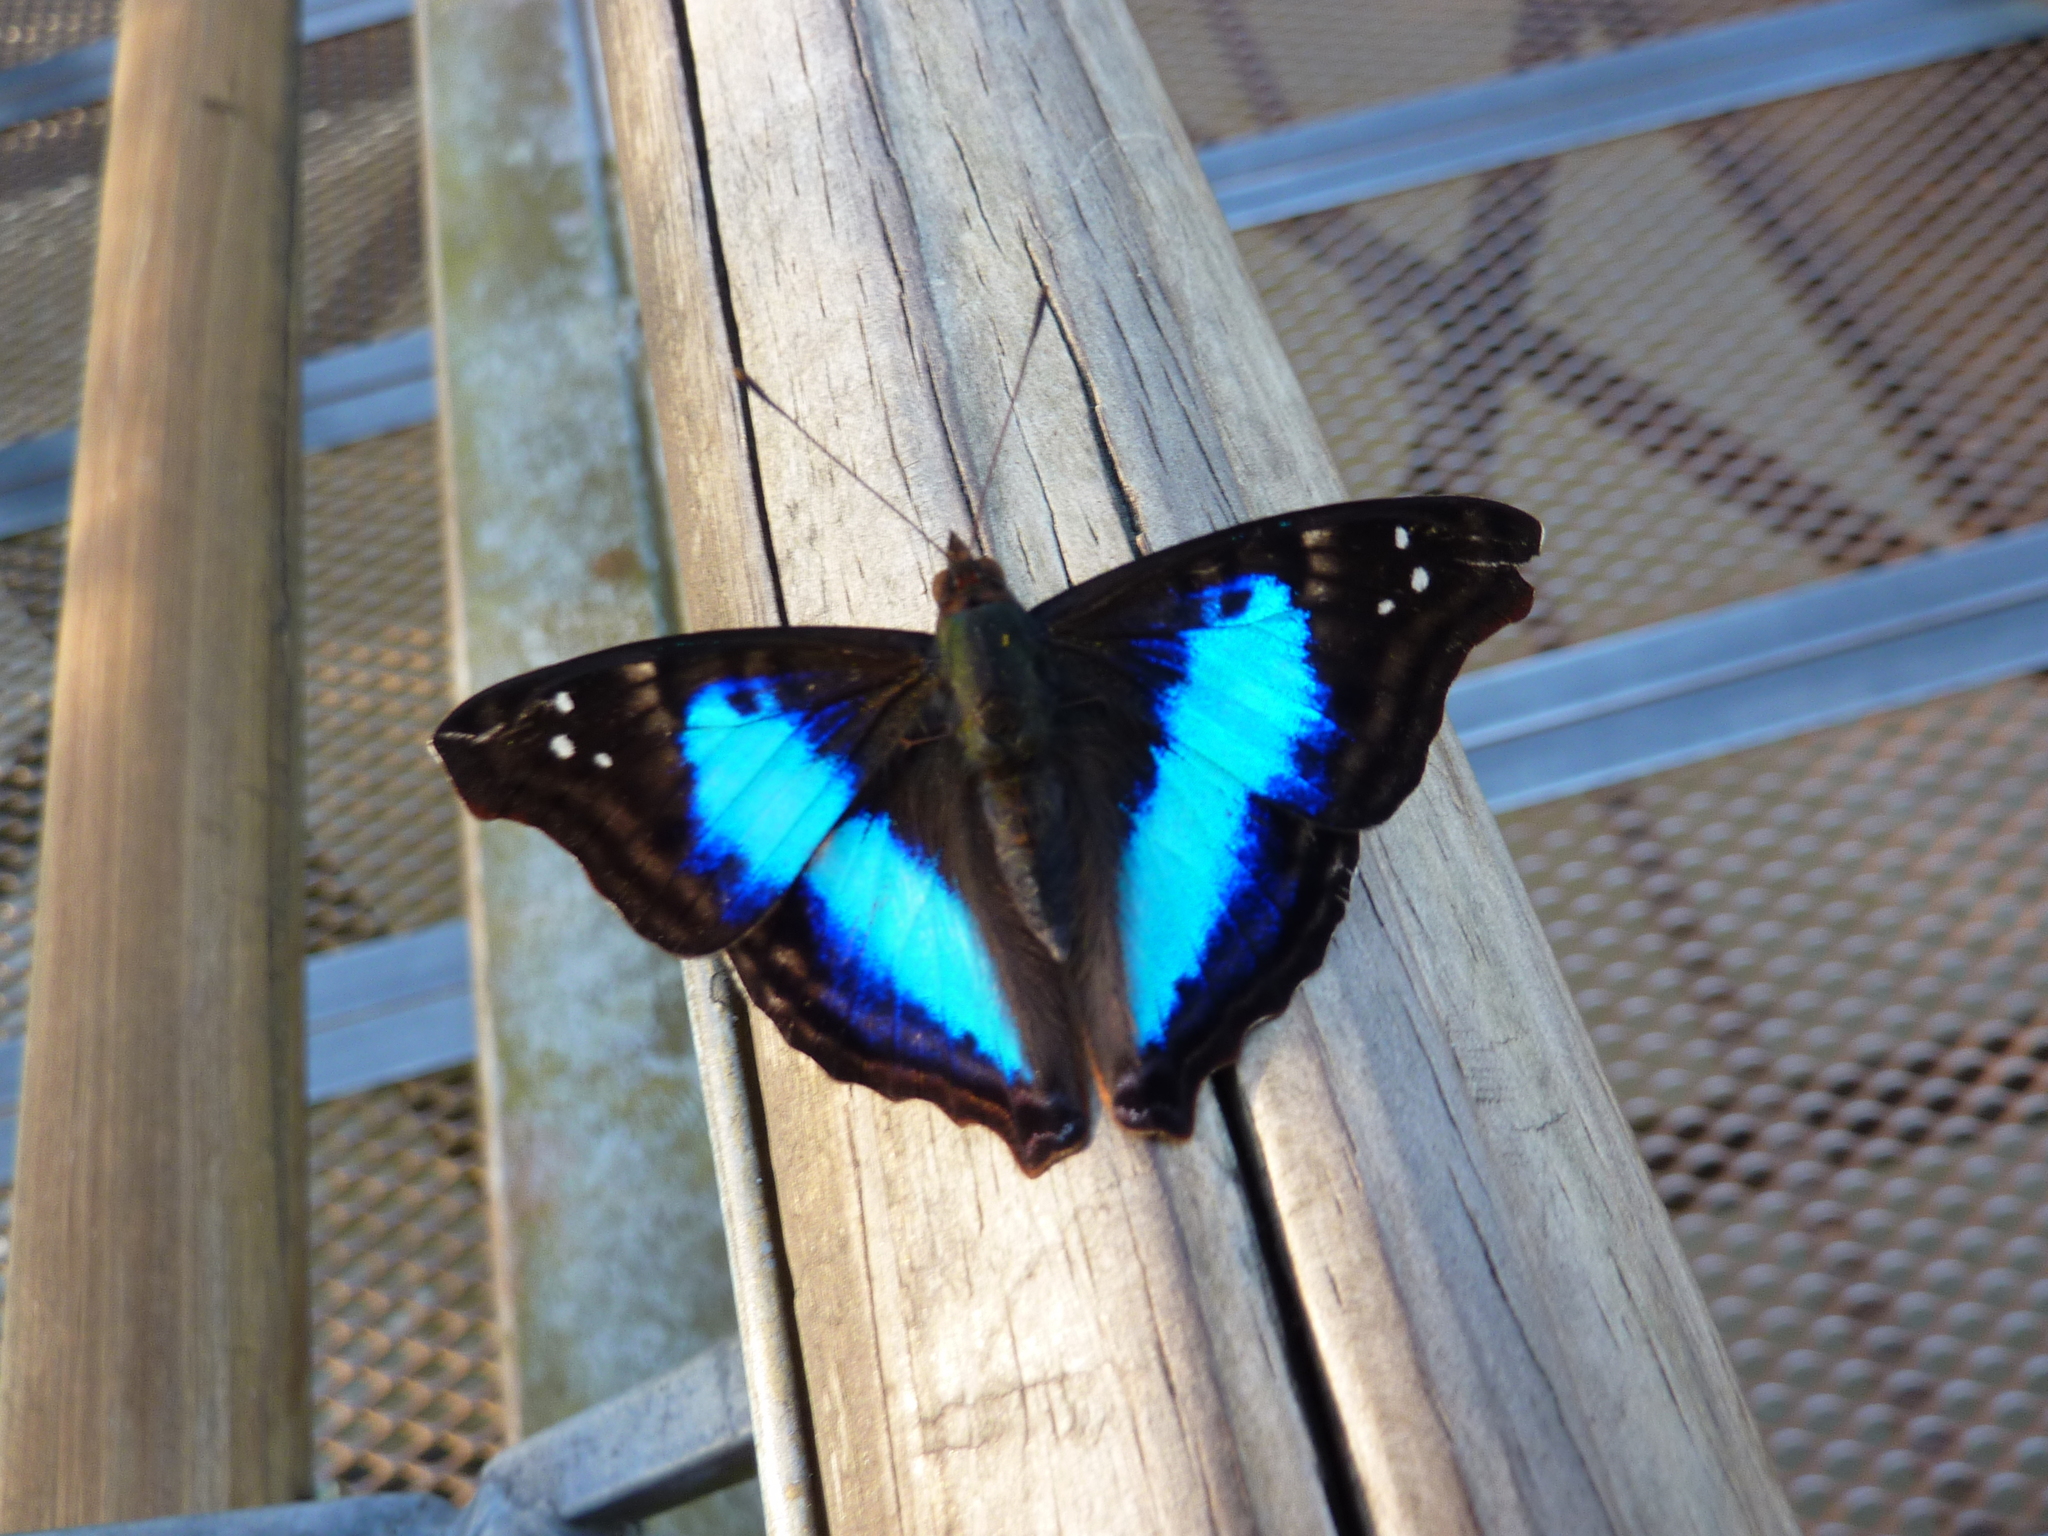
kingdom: Animalia
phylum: Arthropoda
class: Insecta
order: Lepidoptera
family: Nymphalidae
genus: Doxocopa
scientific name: Doxocopa laurentia
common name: Turquoise emperor
